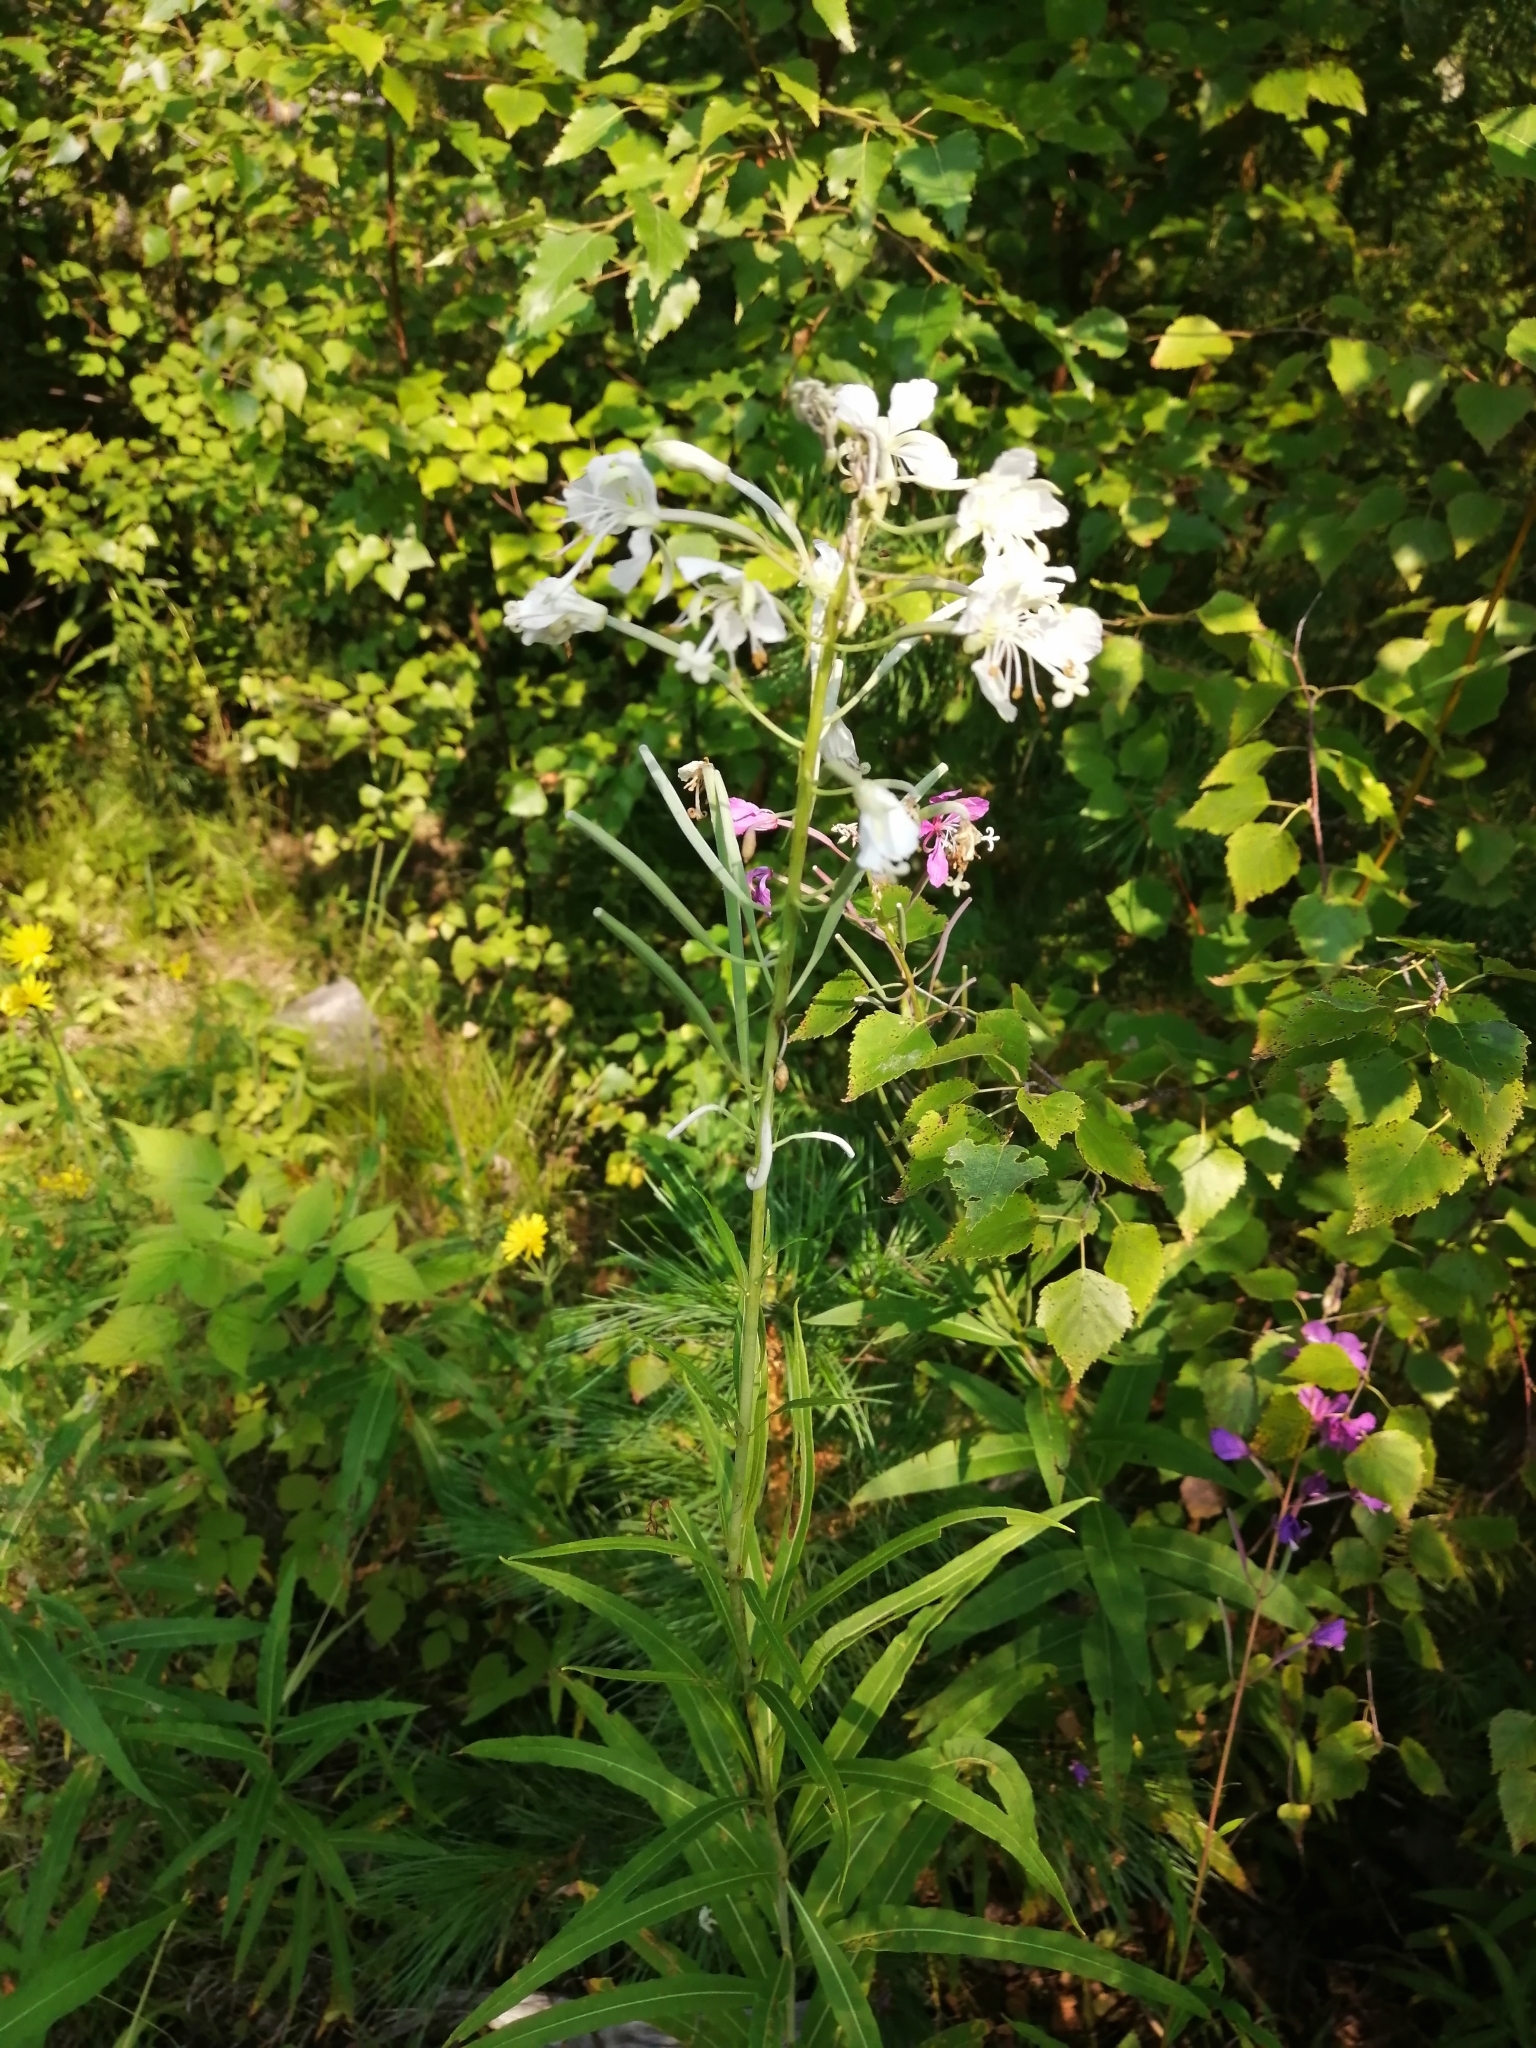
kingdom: Plantae
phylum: Tracheophyta
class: Magnoliopsida
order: Myrtales
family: Onagraceae
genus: Chamaenerion
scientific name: Chamaenerion angustifolium
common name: Fireweed
